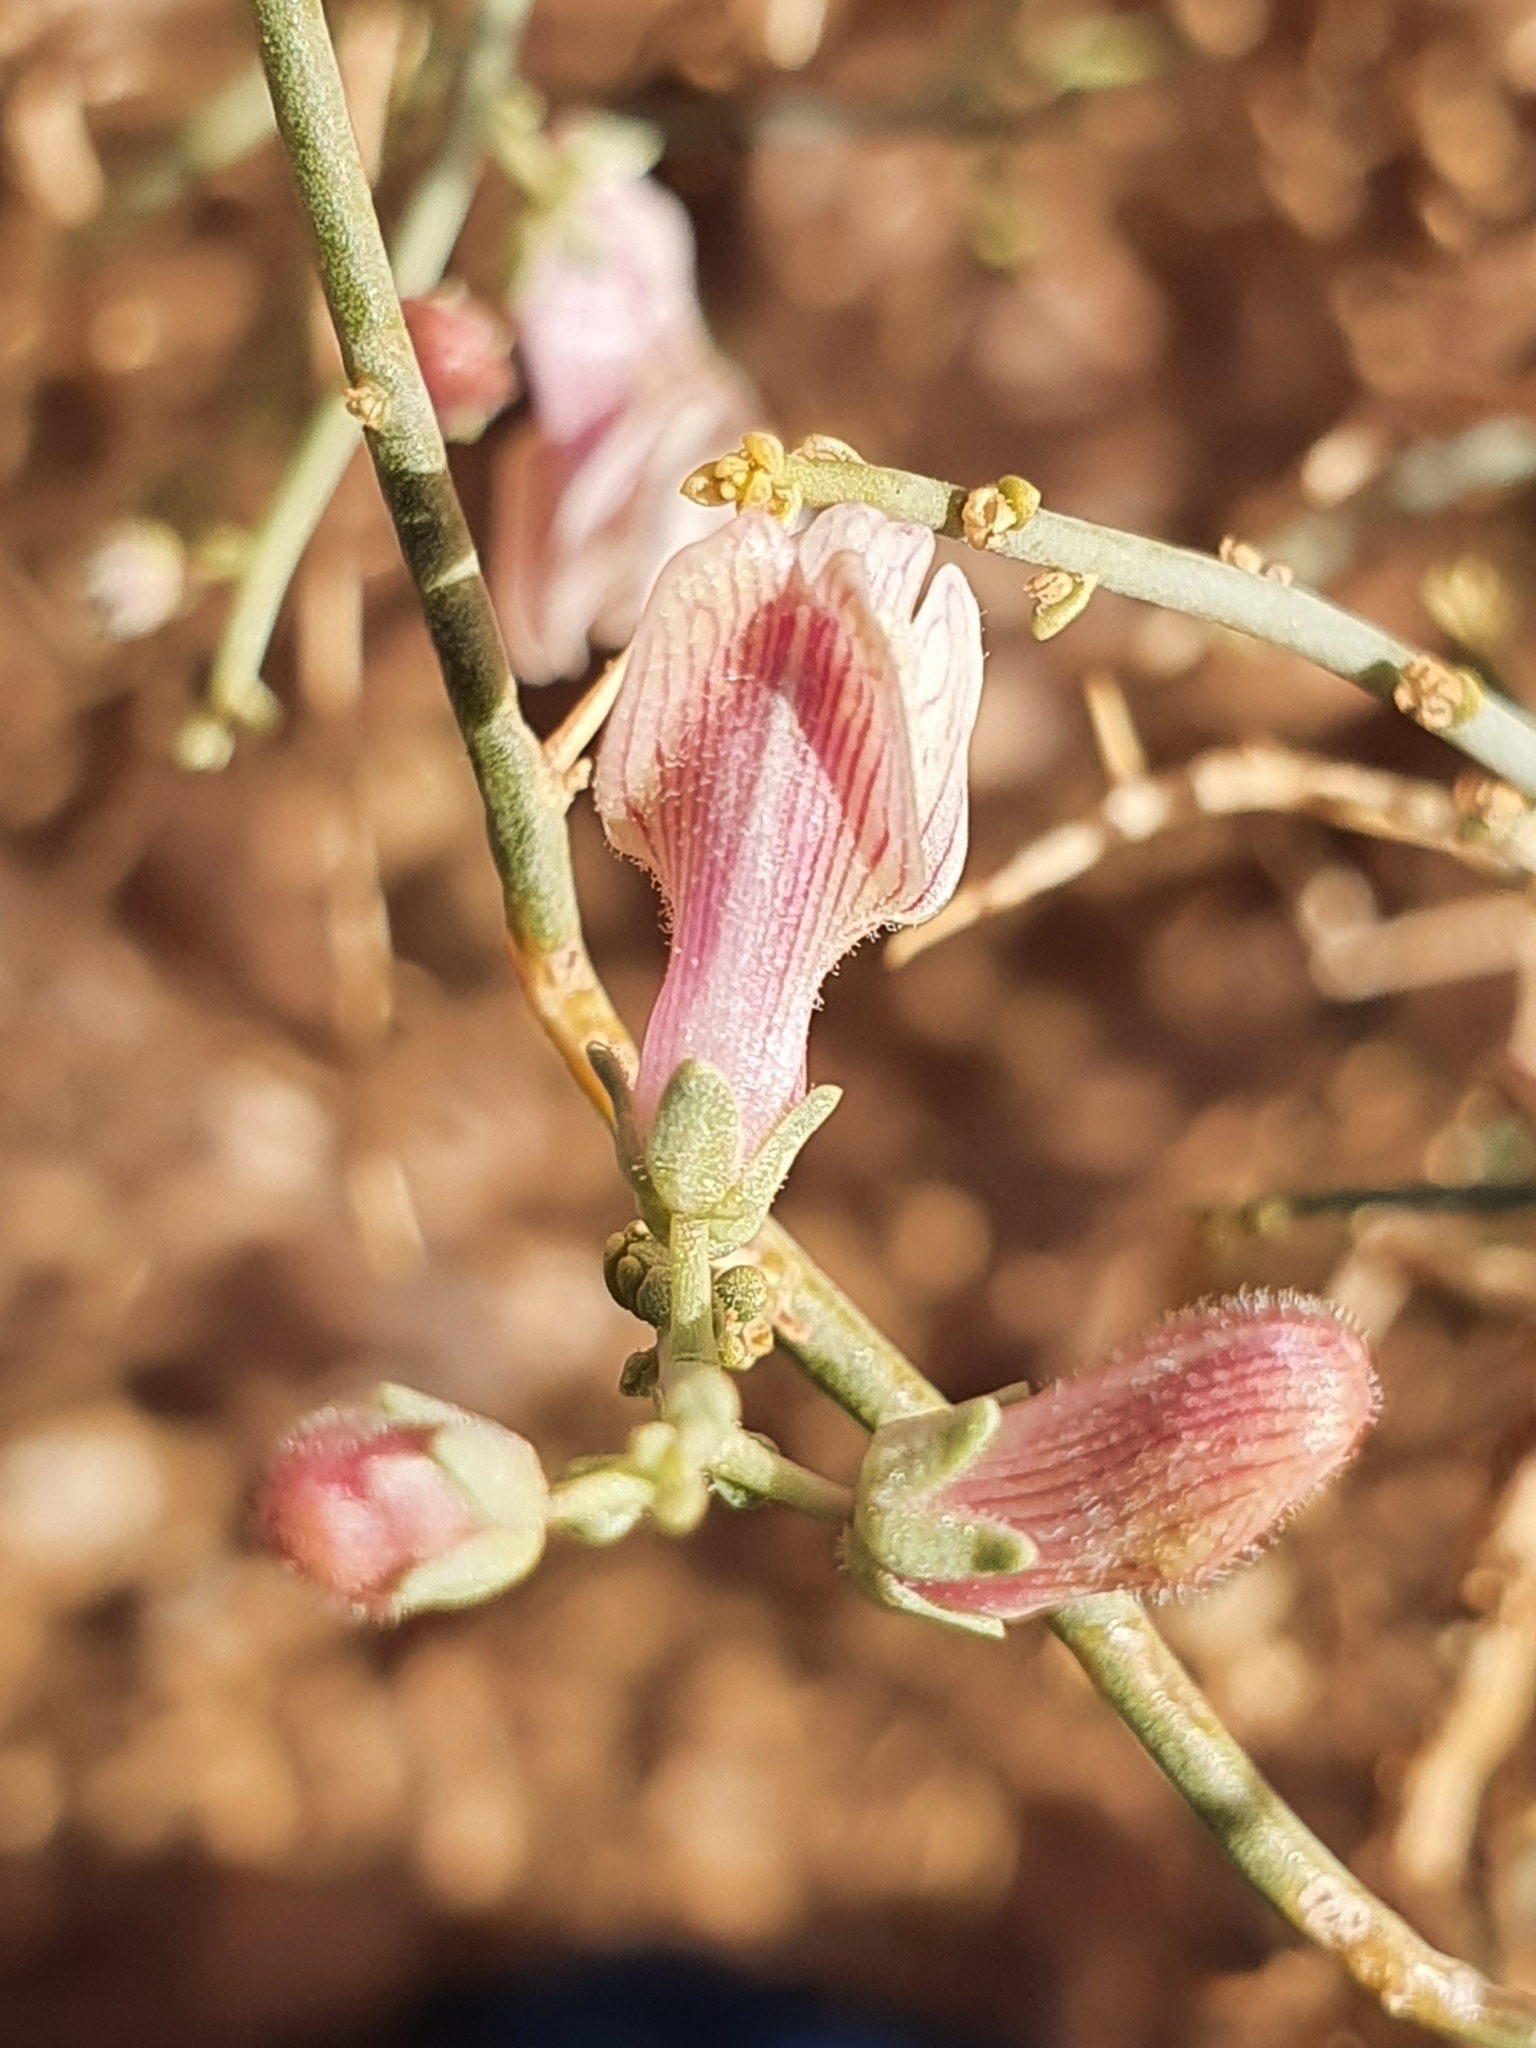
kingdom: Plantae
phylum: Tracheophyta
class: Magnoliopsida
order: Lamiales
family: Plantaginaceae
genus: Acanthorrhinum
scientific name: Acanthorrhinum ramosissimum
